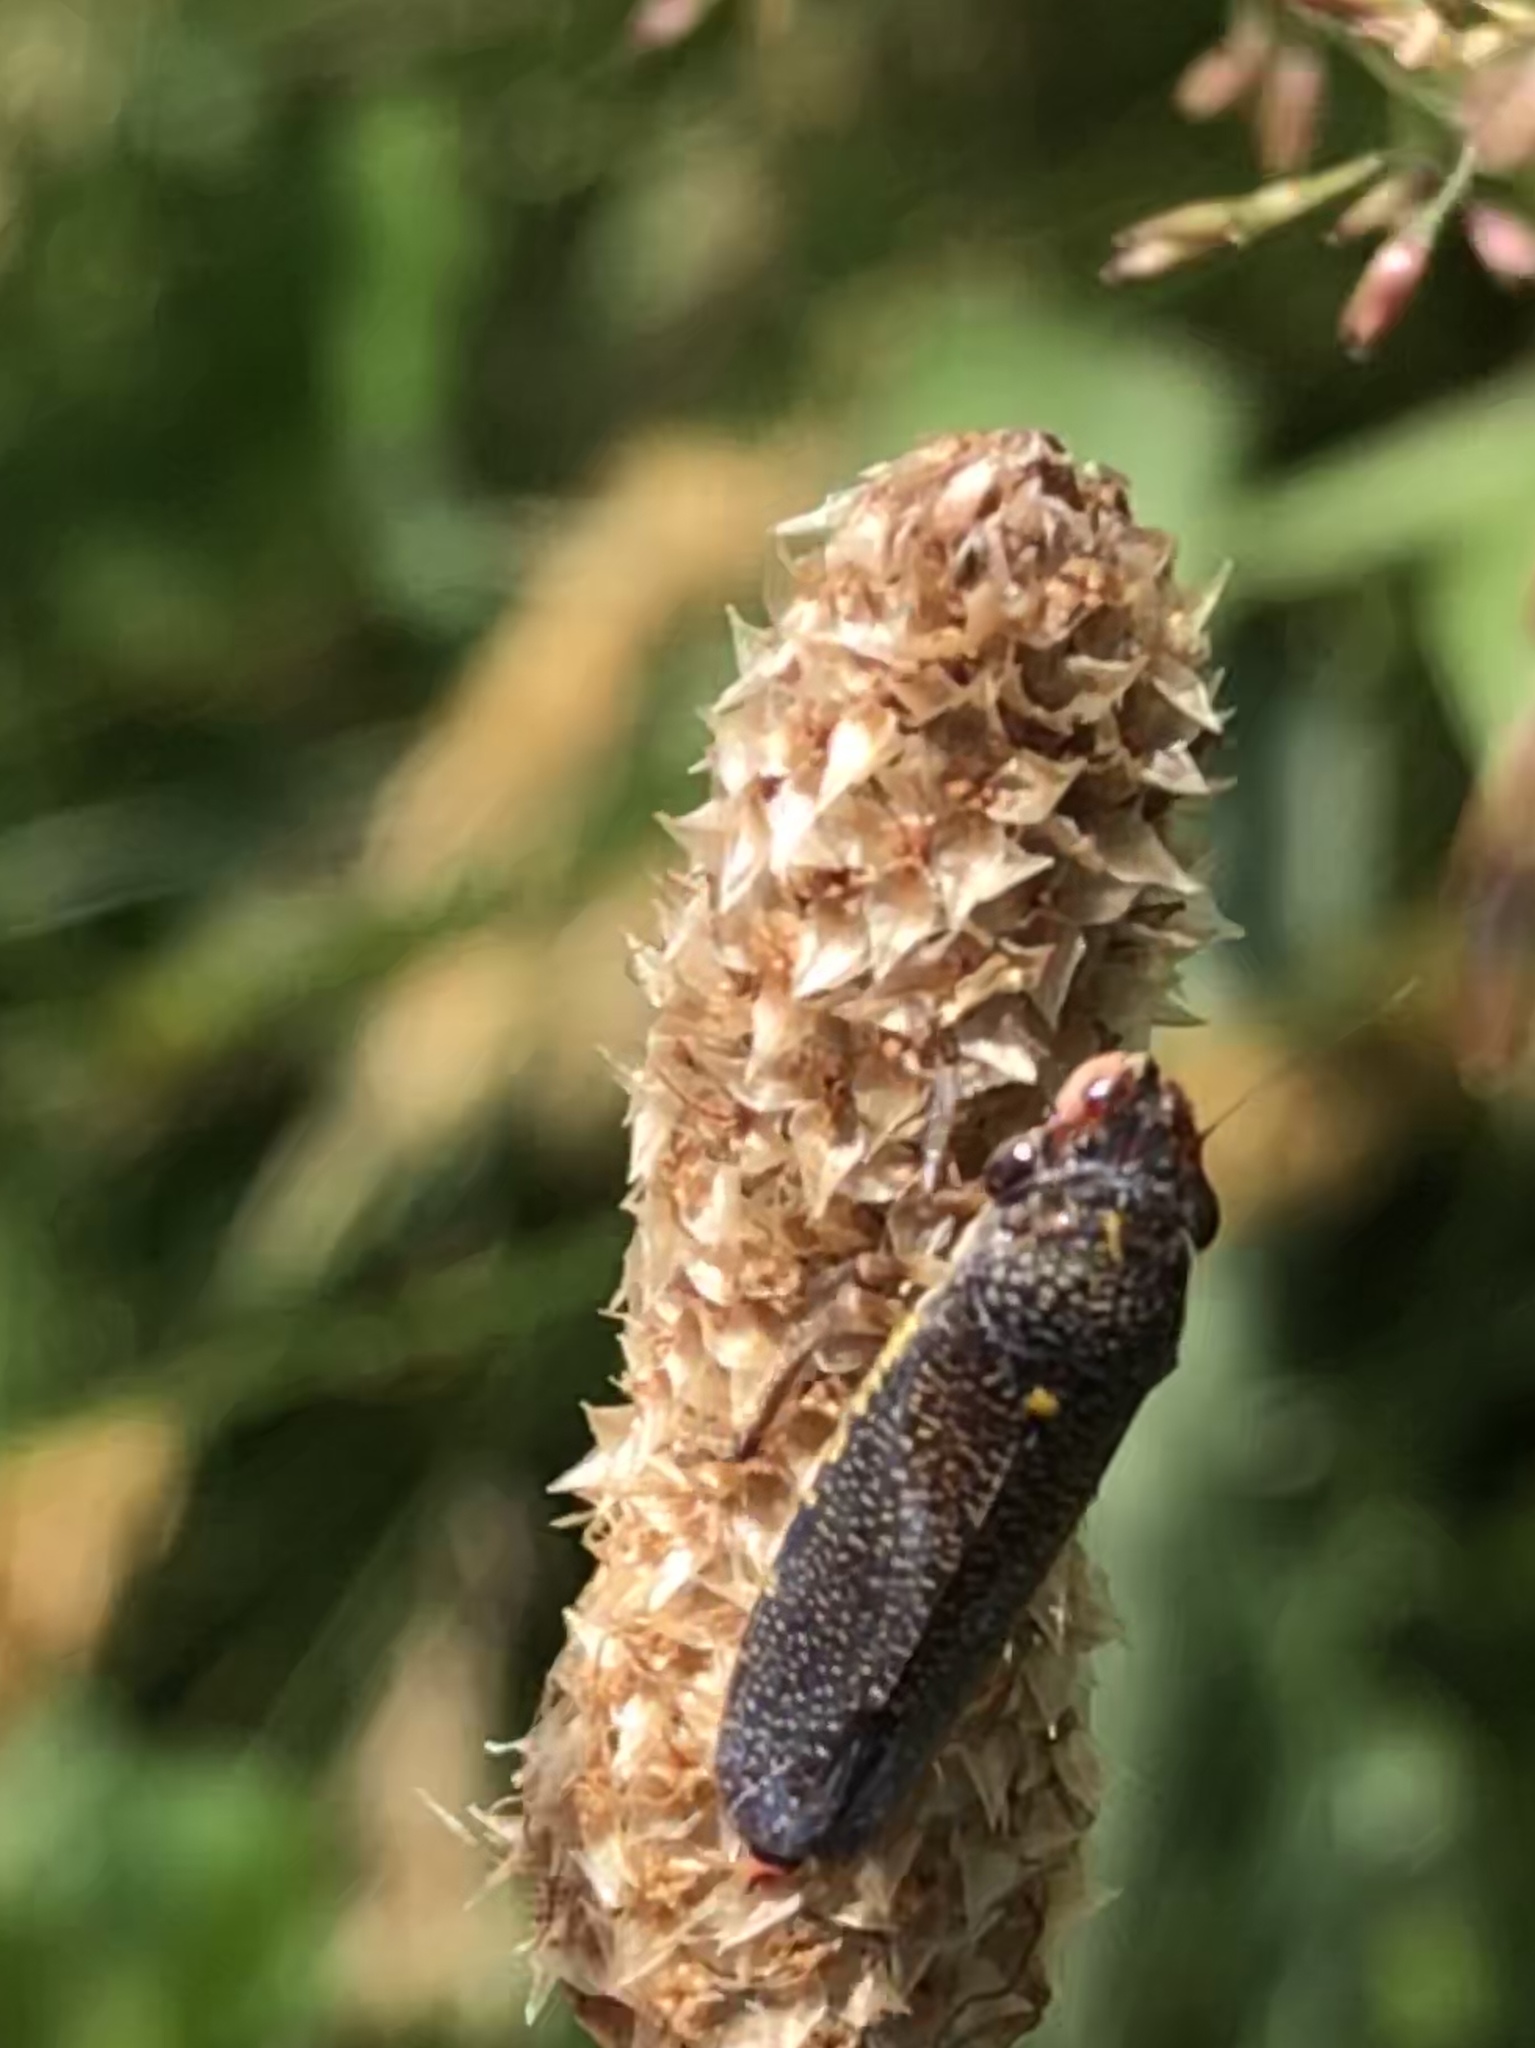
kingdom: Animalia
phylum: Arthropoda
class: Insecta
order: Hemiptera
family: Cicadellidae
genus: Paraulacizes
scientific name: Paraulacizes irrorata
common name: Speckled sharpshooter
